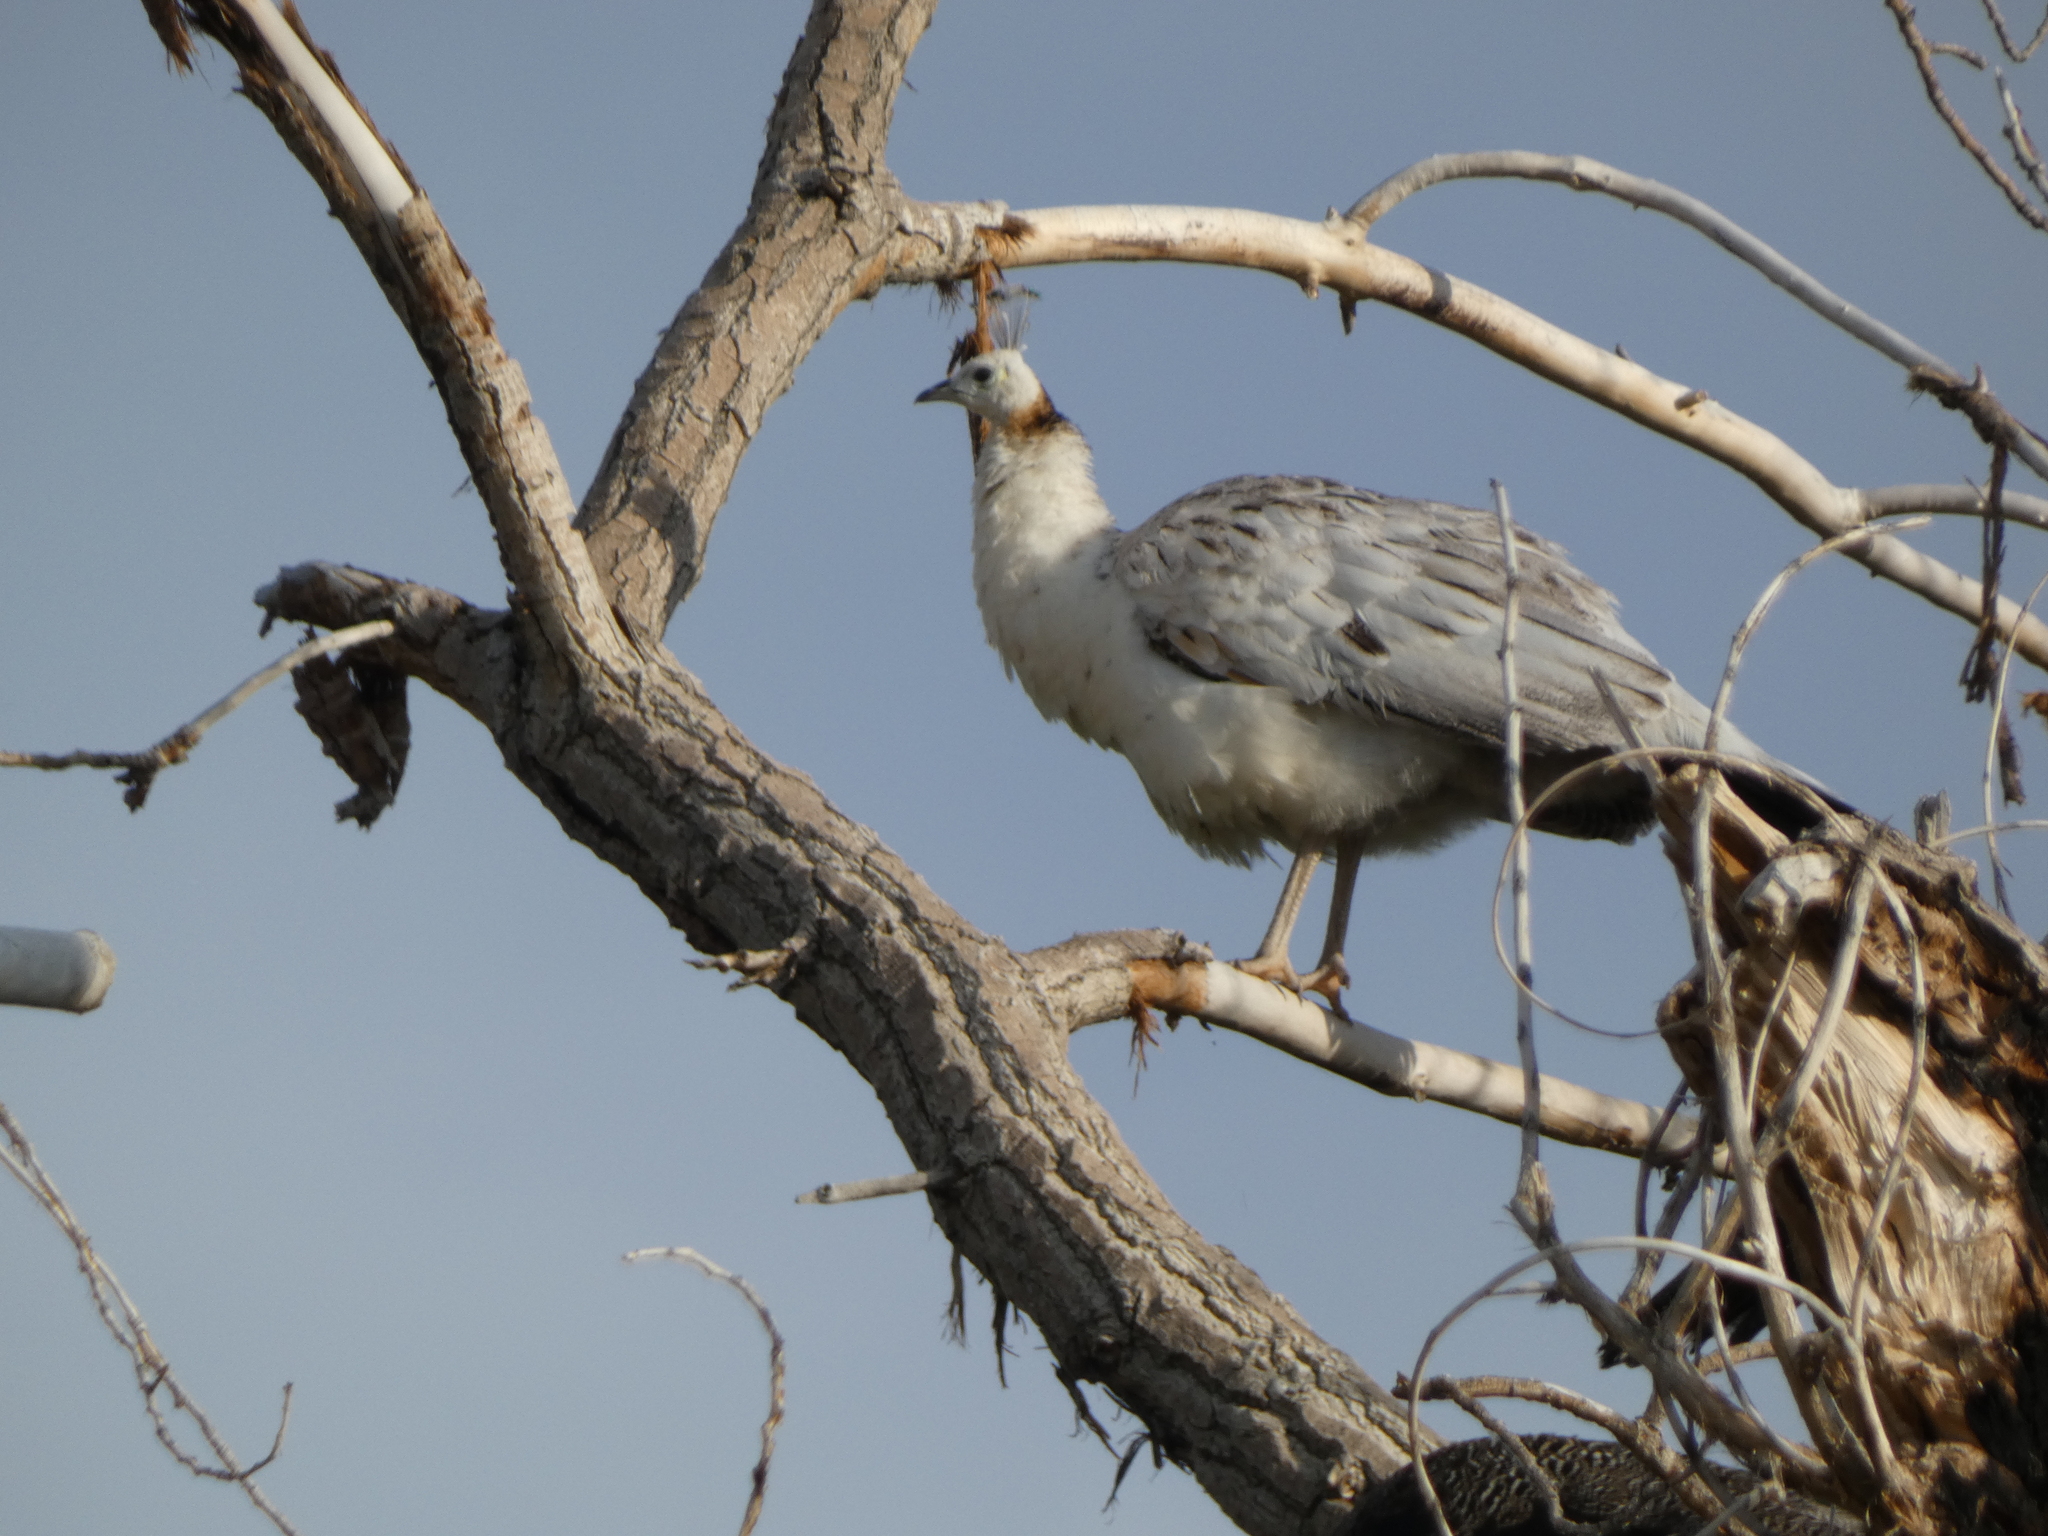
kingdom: Animalia
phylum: Chordata
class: Aves
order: Galliformes
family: Phasianidae
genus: Pavo
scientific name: Pavo cristatus
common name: Indian peafowl
